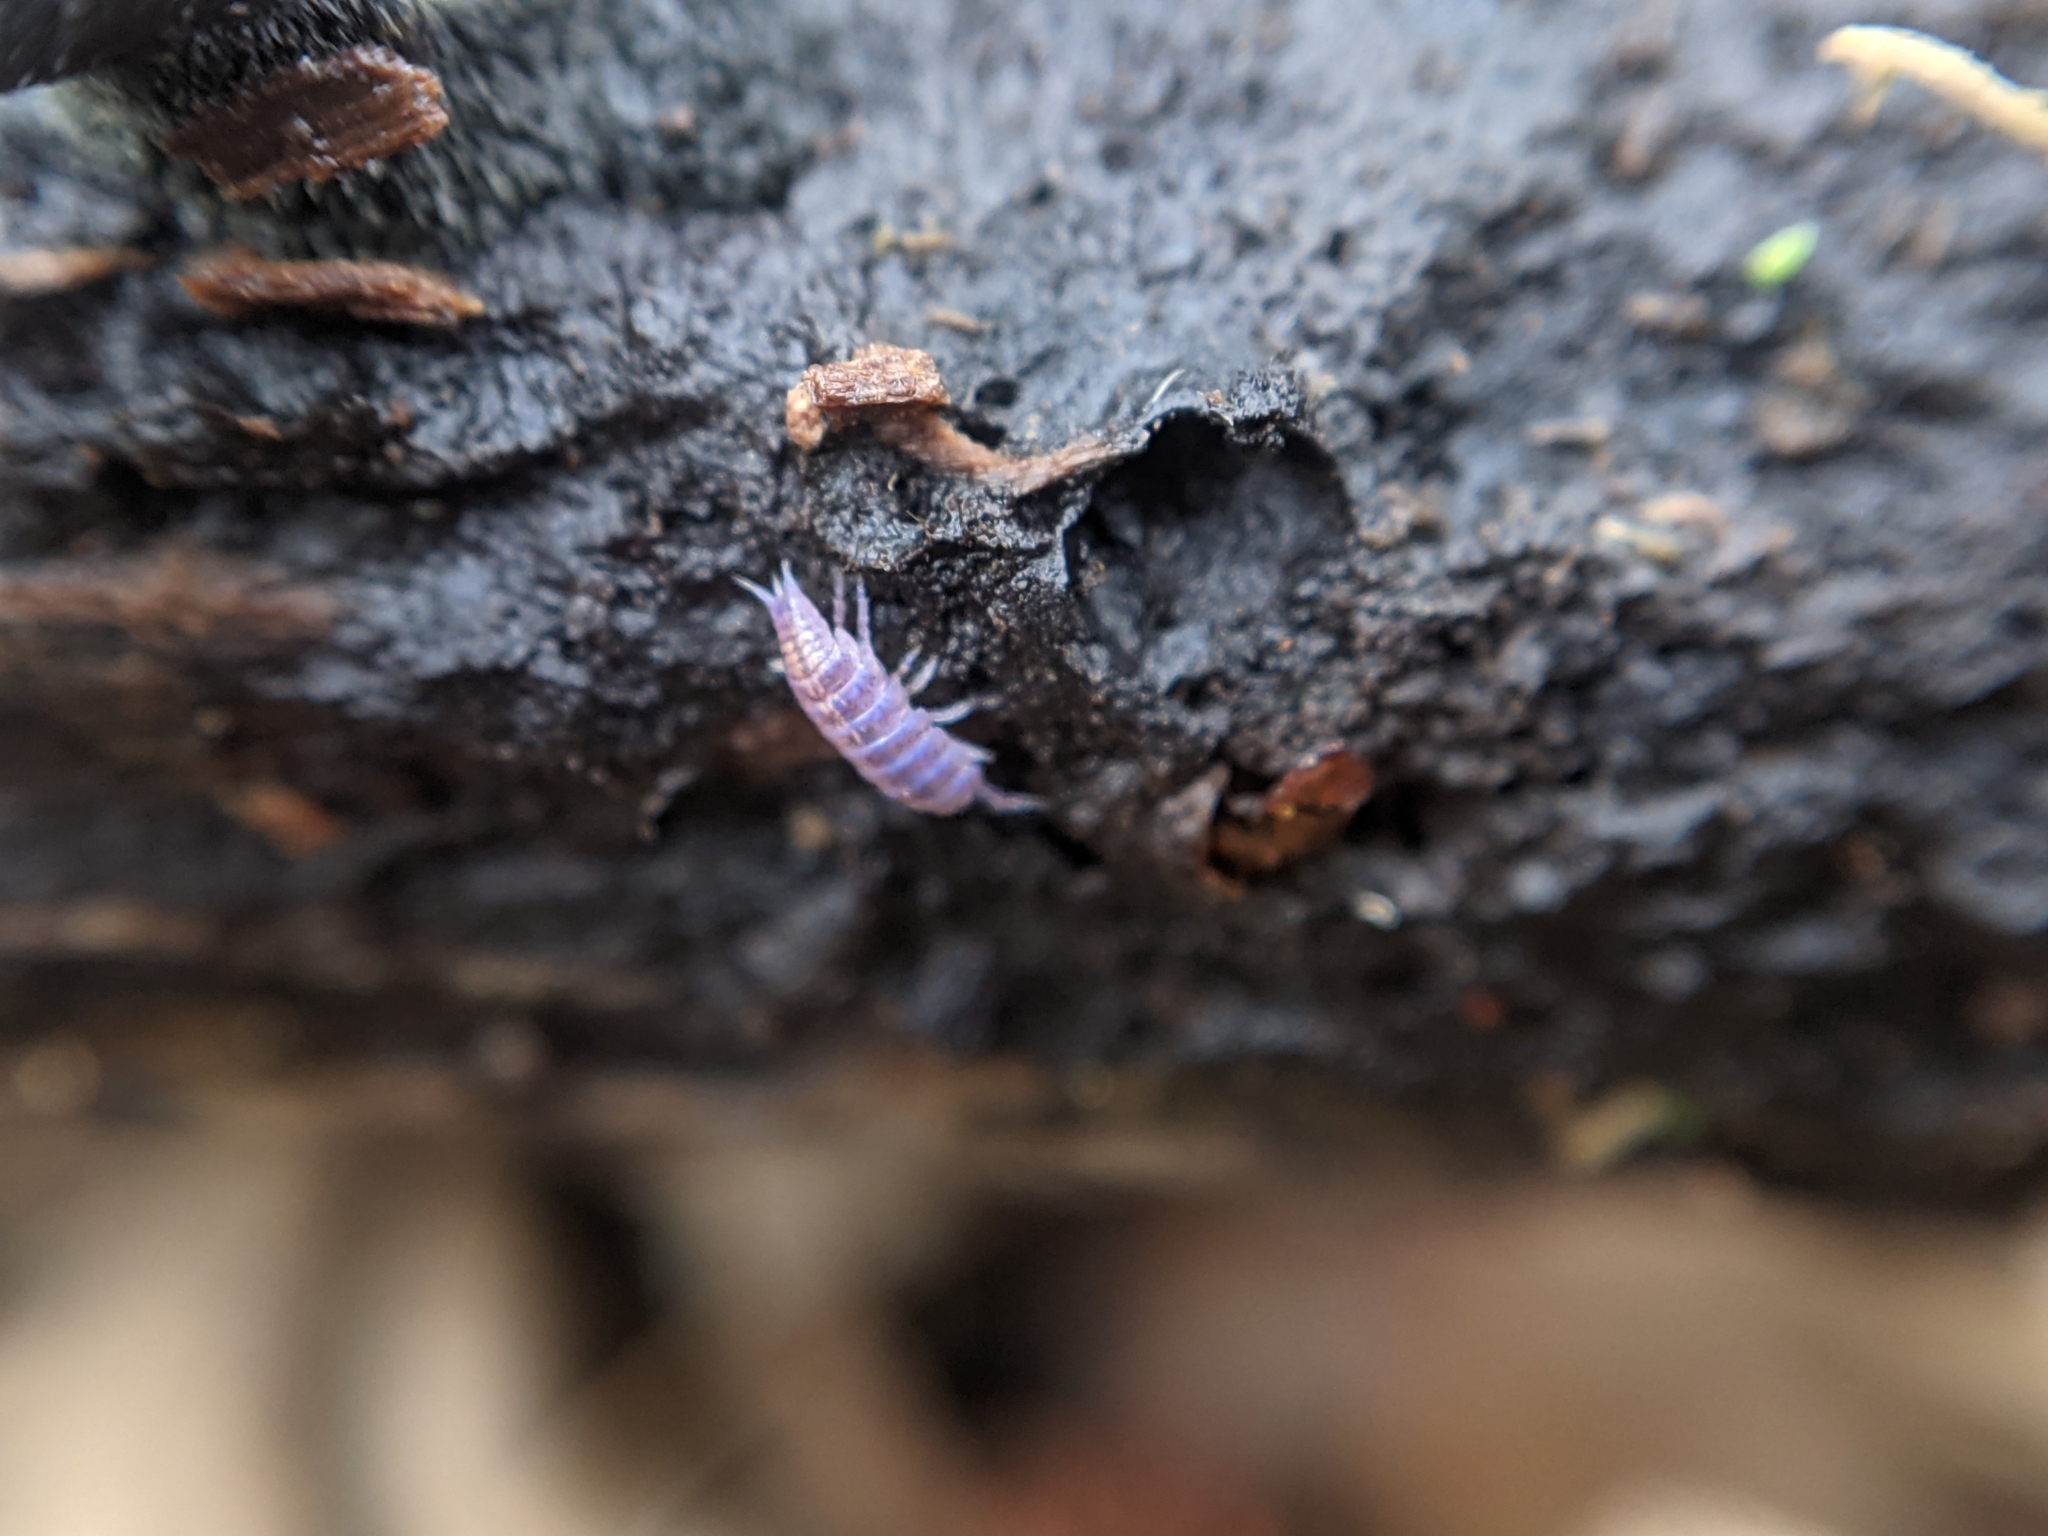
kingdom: Viruses
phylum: Nucleocytoviricota
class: Megaviricetes
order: Pimascovirales
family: Iridoviridae
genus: Iridovirus
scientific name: Iridovirus Invertebrate iridescent virus 31
